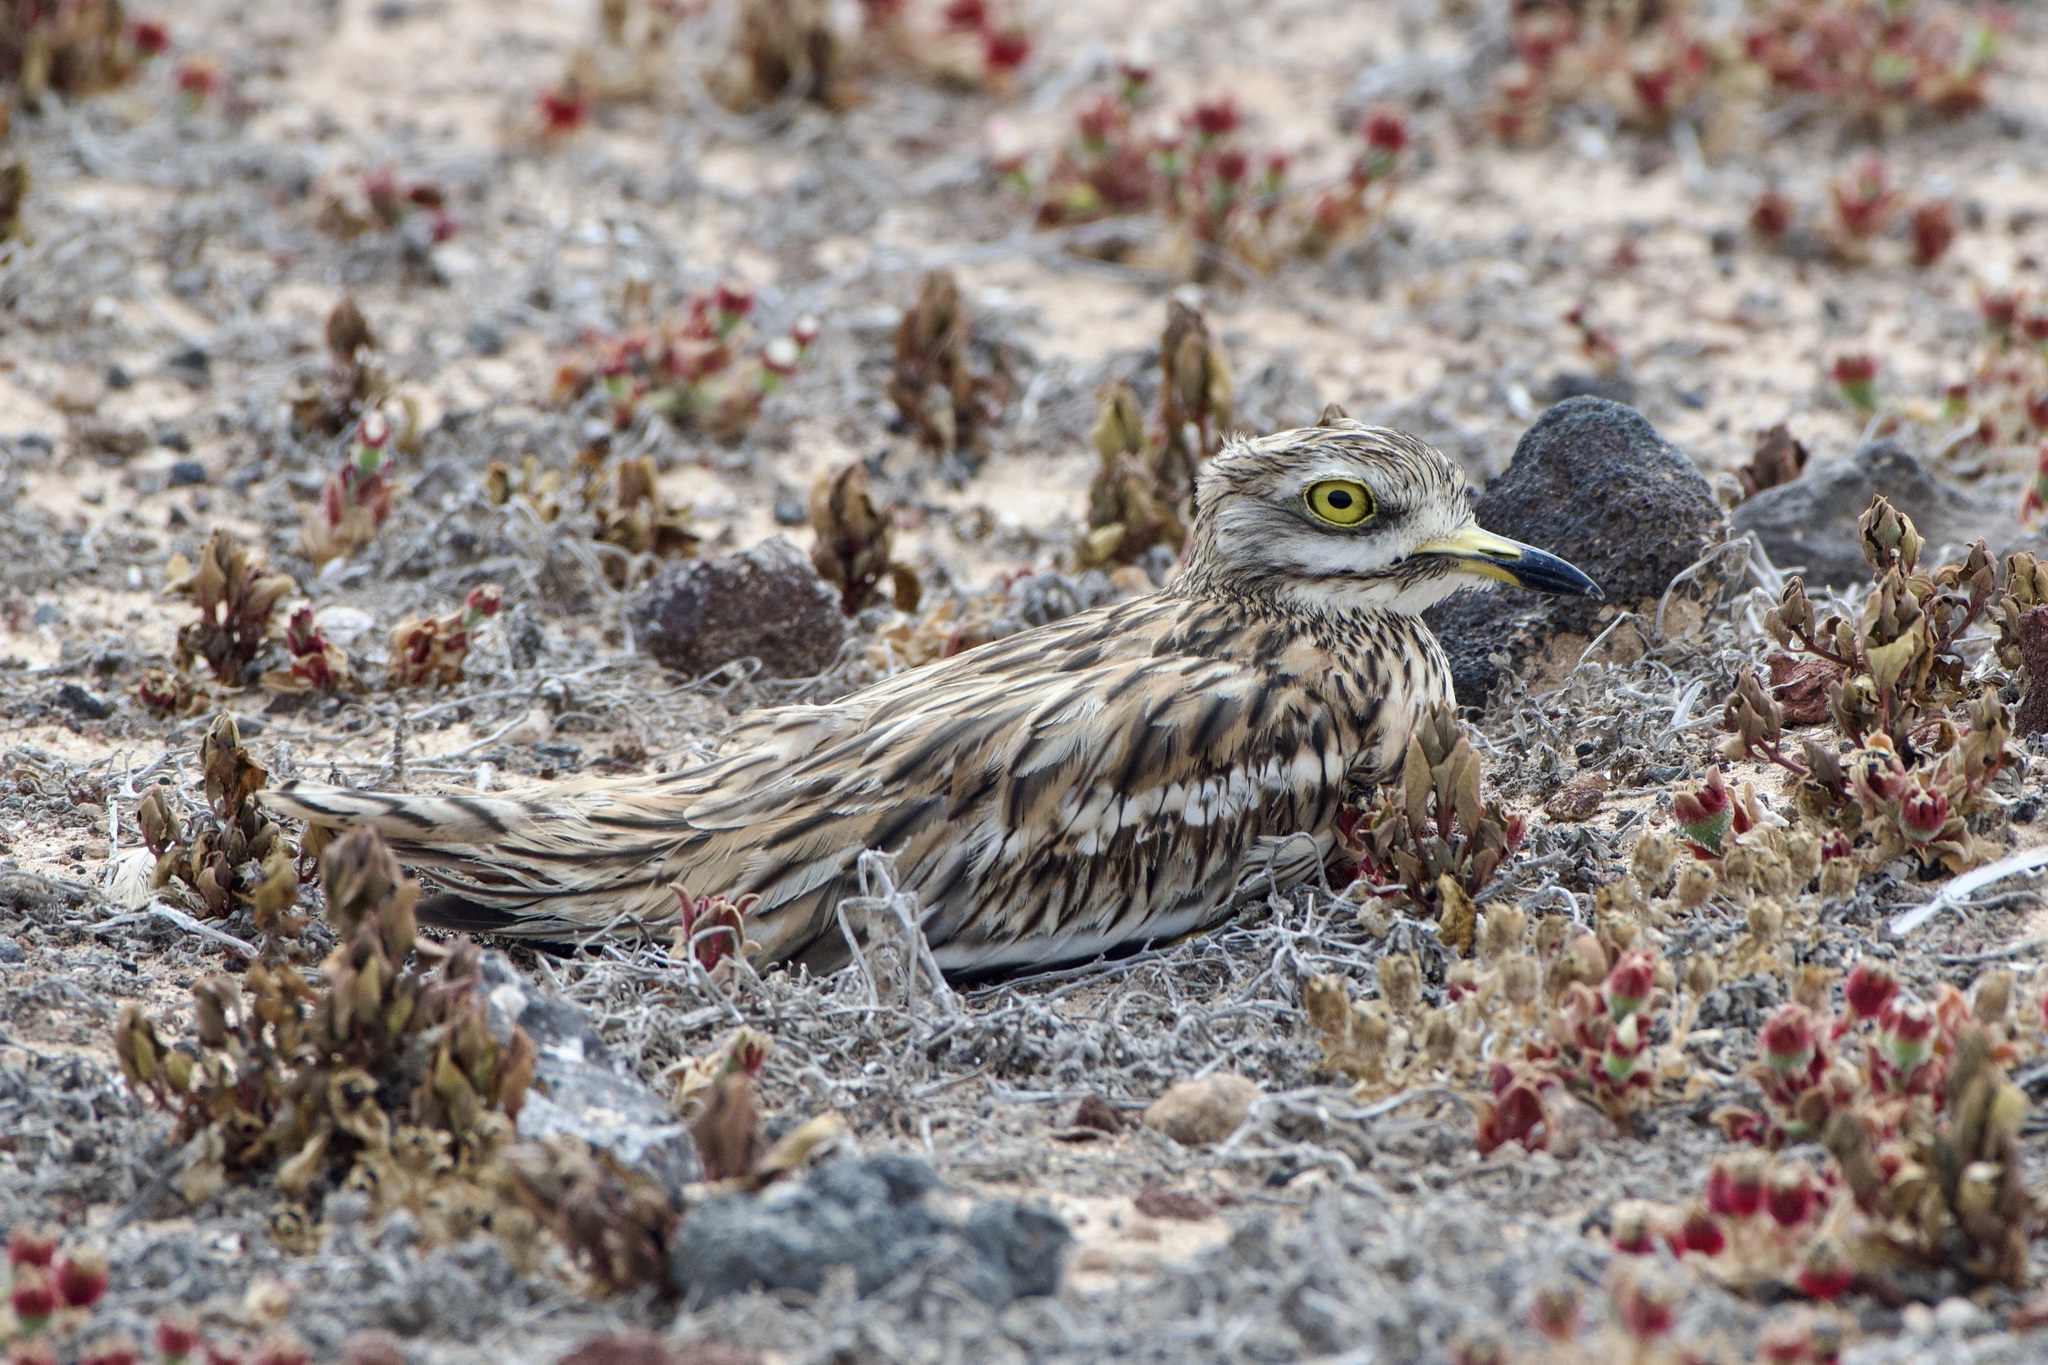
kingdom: Animalia
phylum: Chordata
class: Aves
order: Charadriiformes
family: Burhinidae
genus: Burhinus
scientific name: Burhinus oedicnemus
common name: Eurasian stone-curlew
